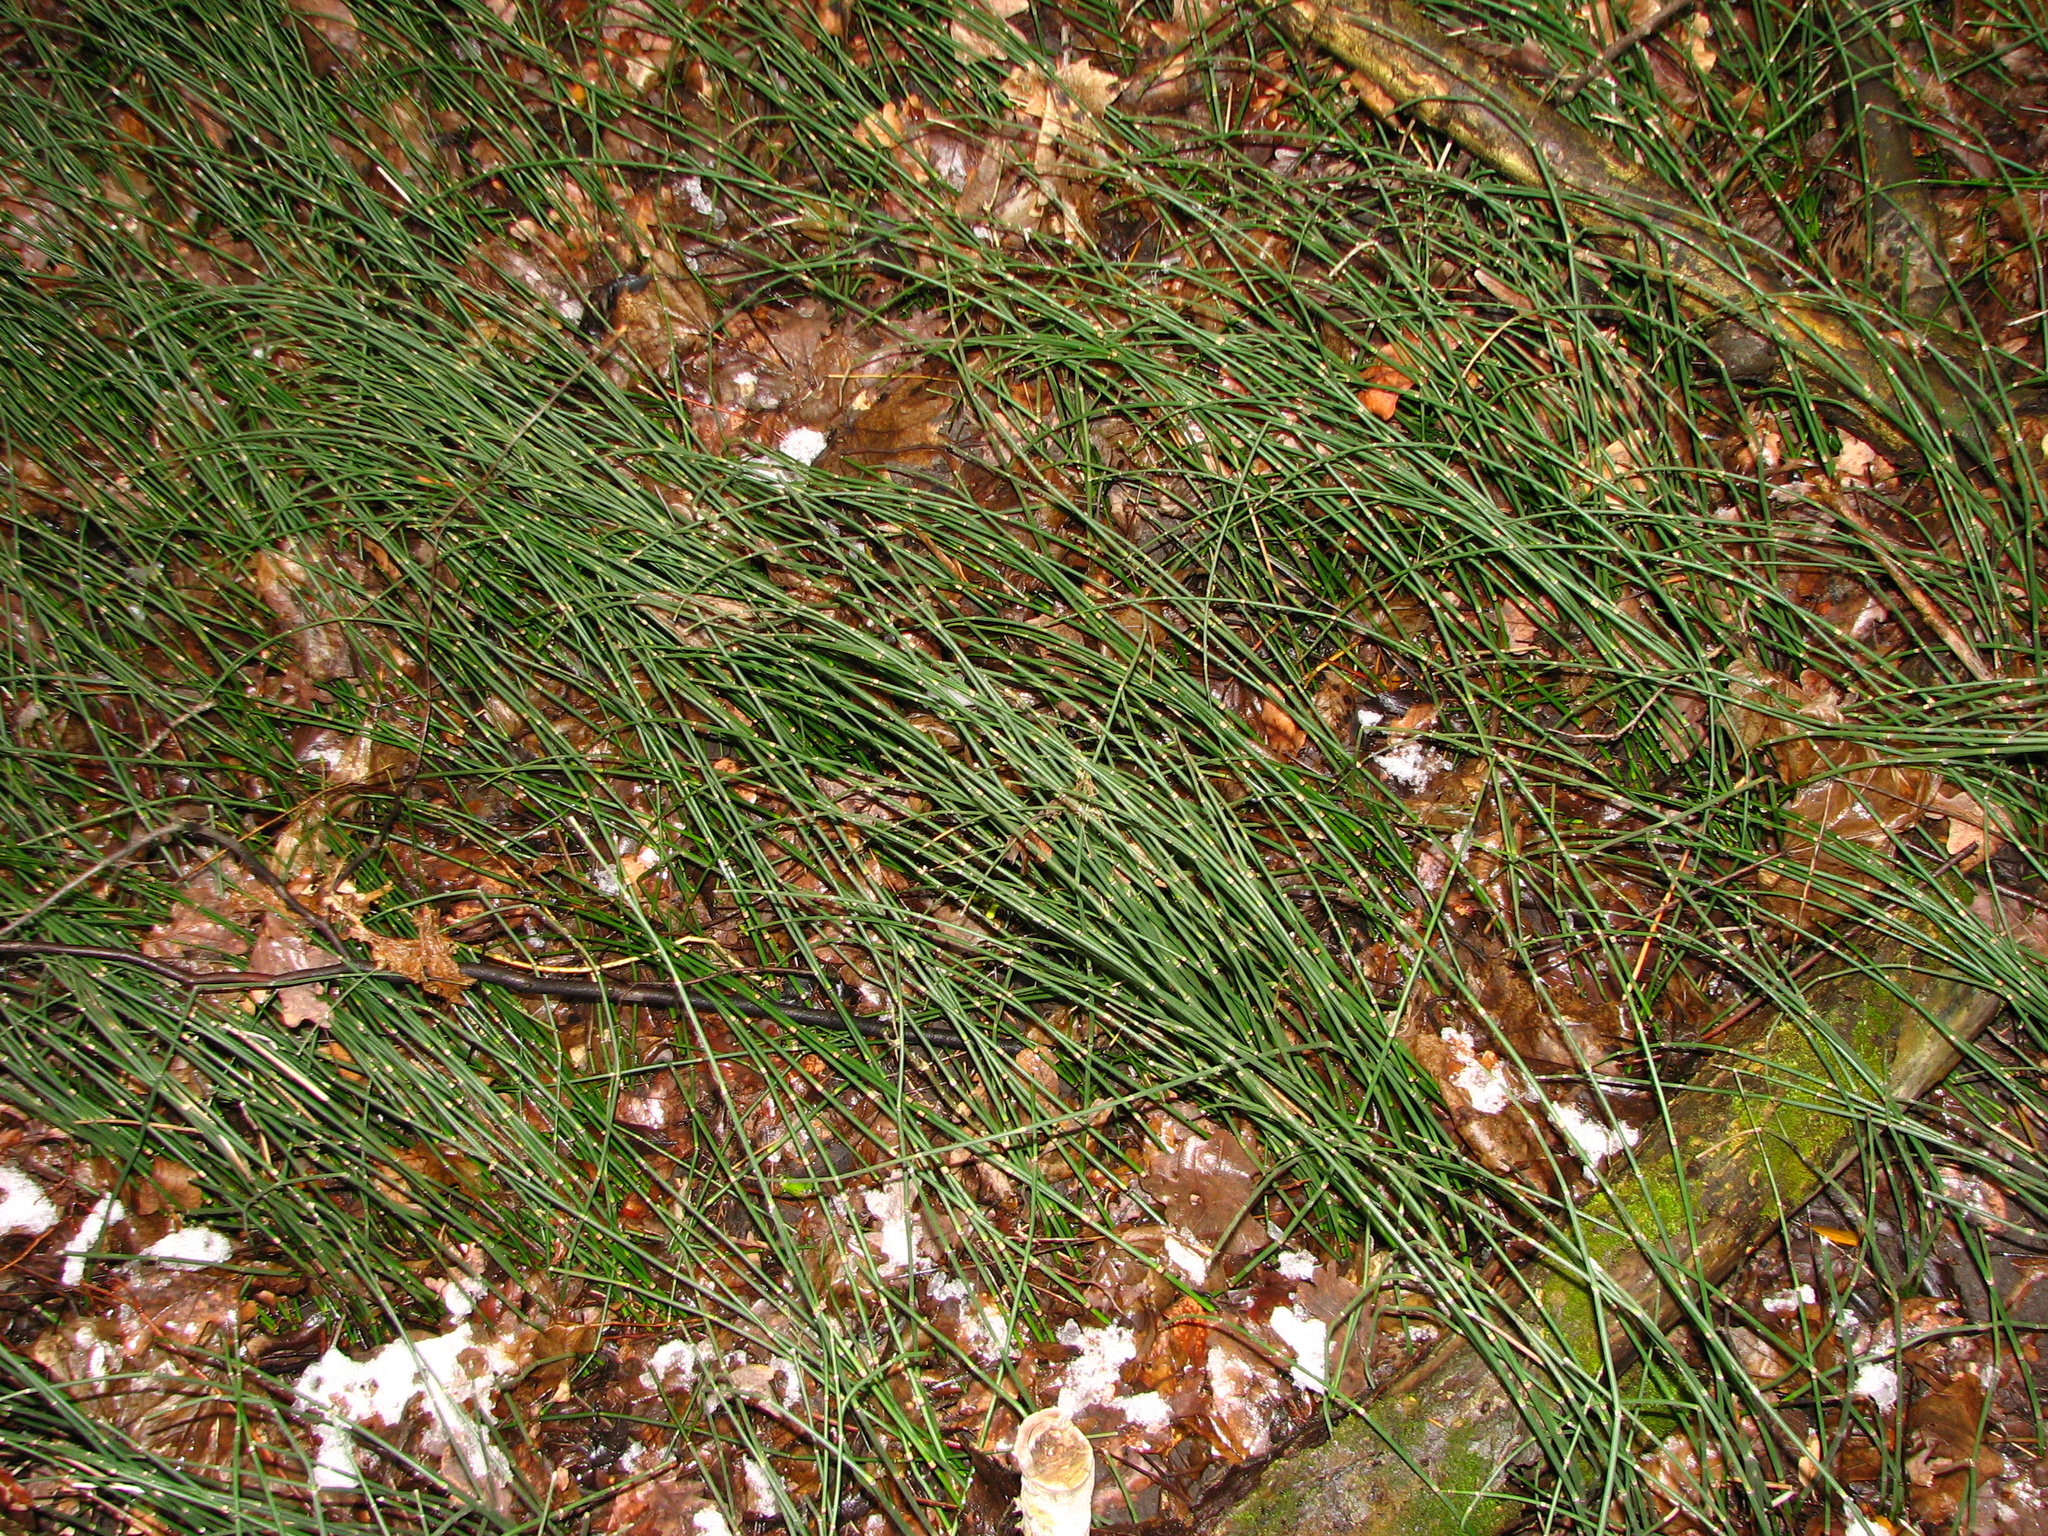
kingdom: Plantae
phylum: Tracheophyta
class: Polypodiopsida
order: Equisetales
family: Equisetaceae
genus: Equisetum
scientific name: Equisetum hyemale
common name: Rough horsetail
